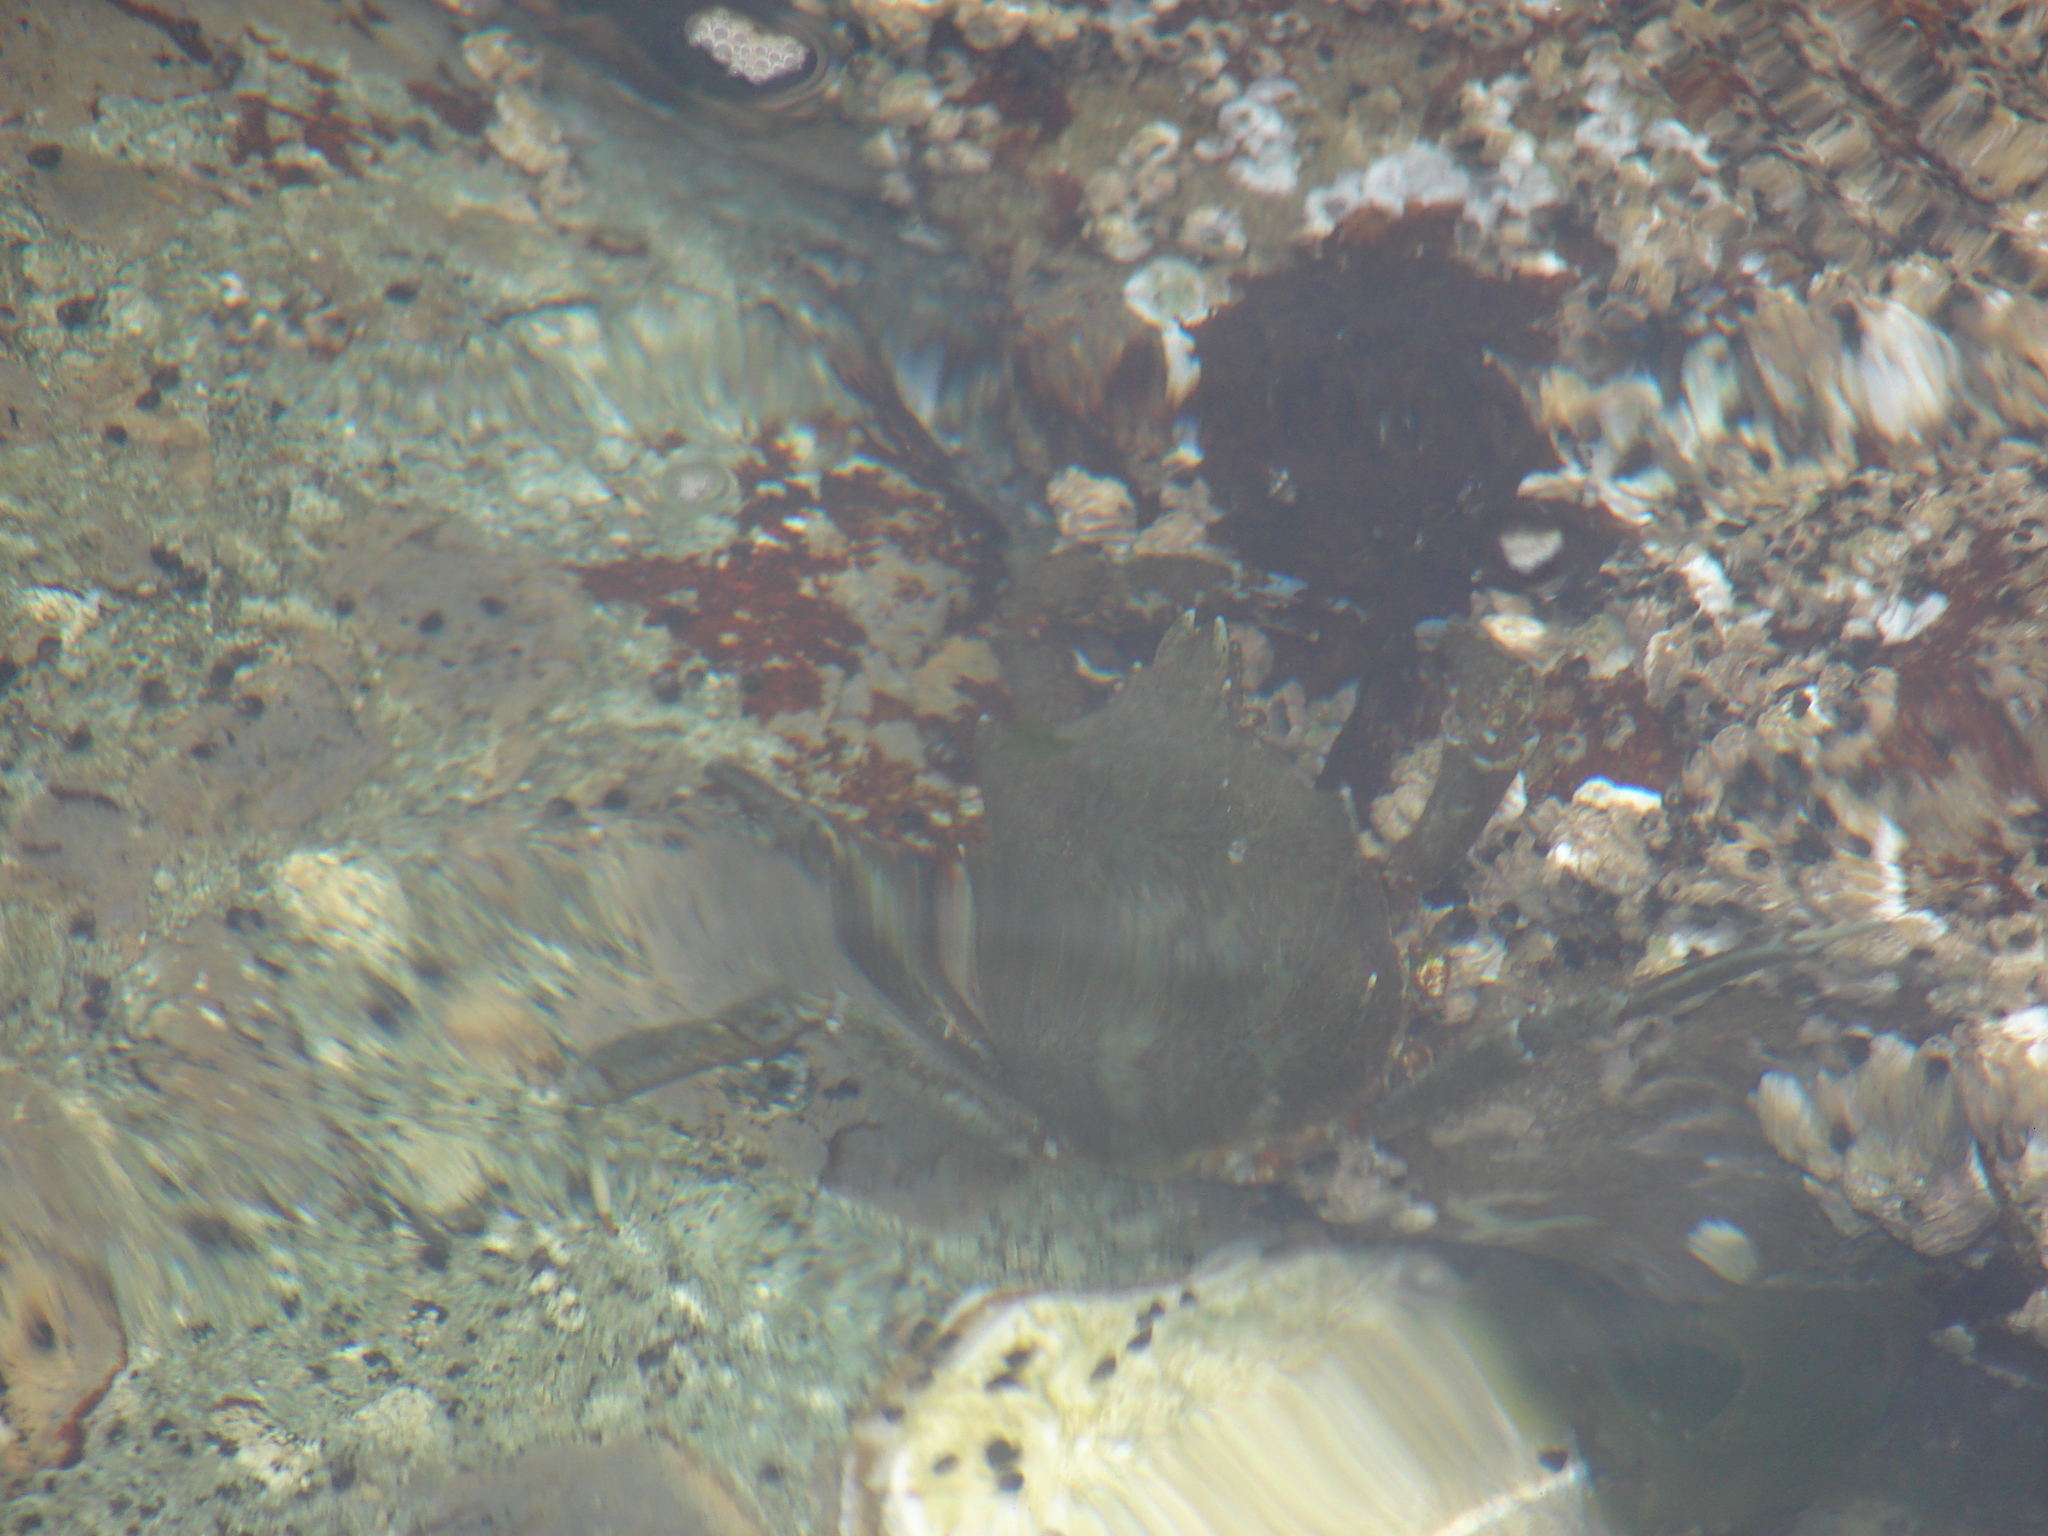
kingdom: Animalia
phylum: Arthropoda
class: Malacostraca
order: Decapoda
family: Epialtidae
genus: Pugettia
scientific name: Pugettia producta
